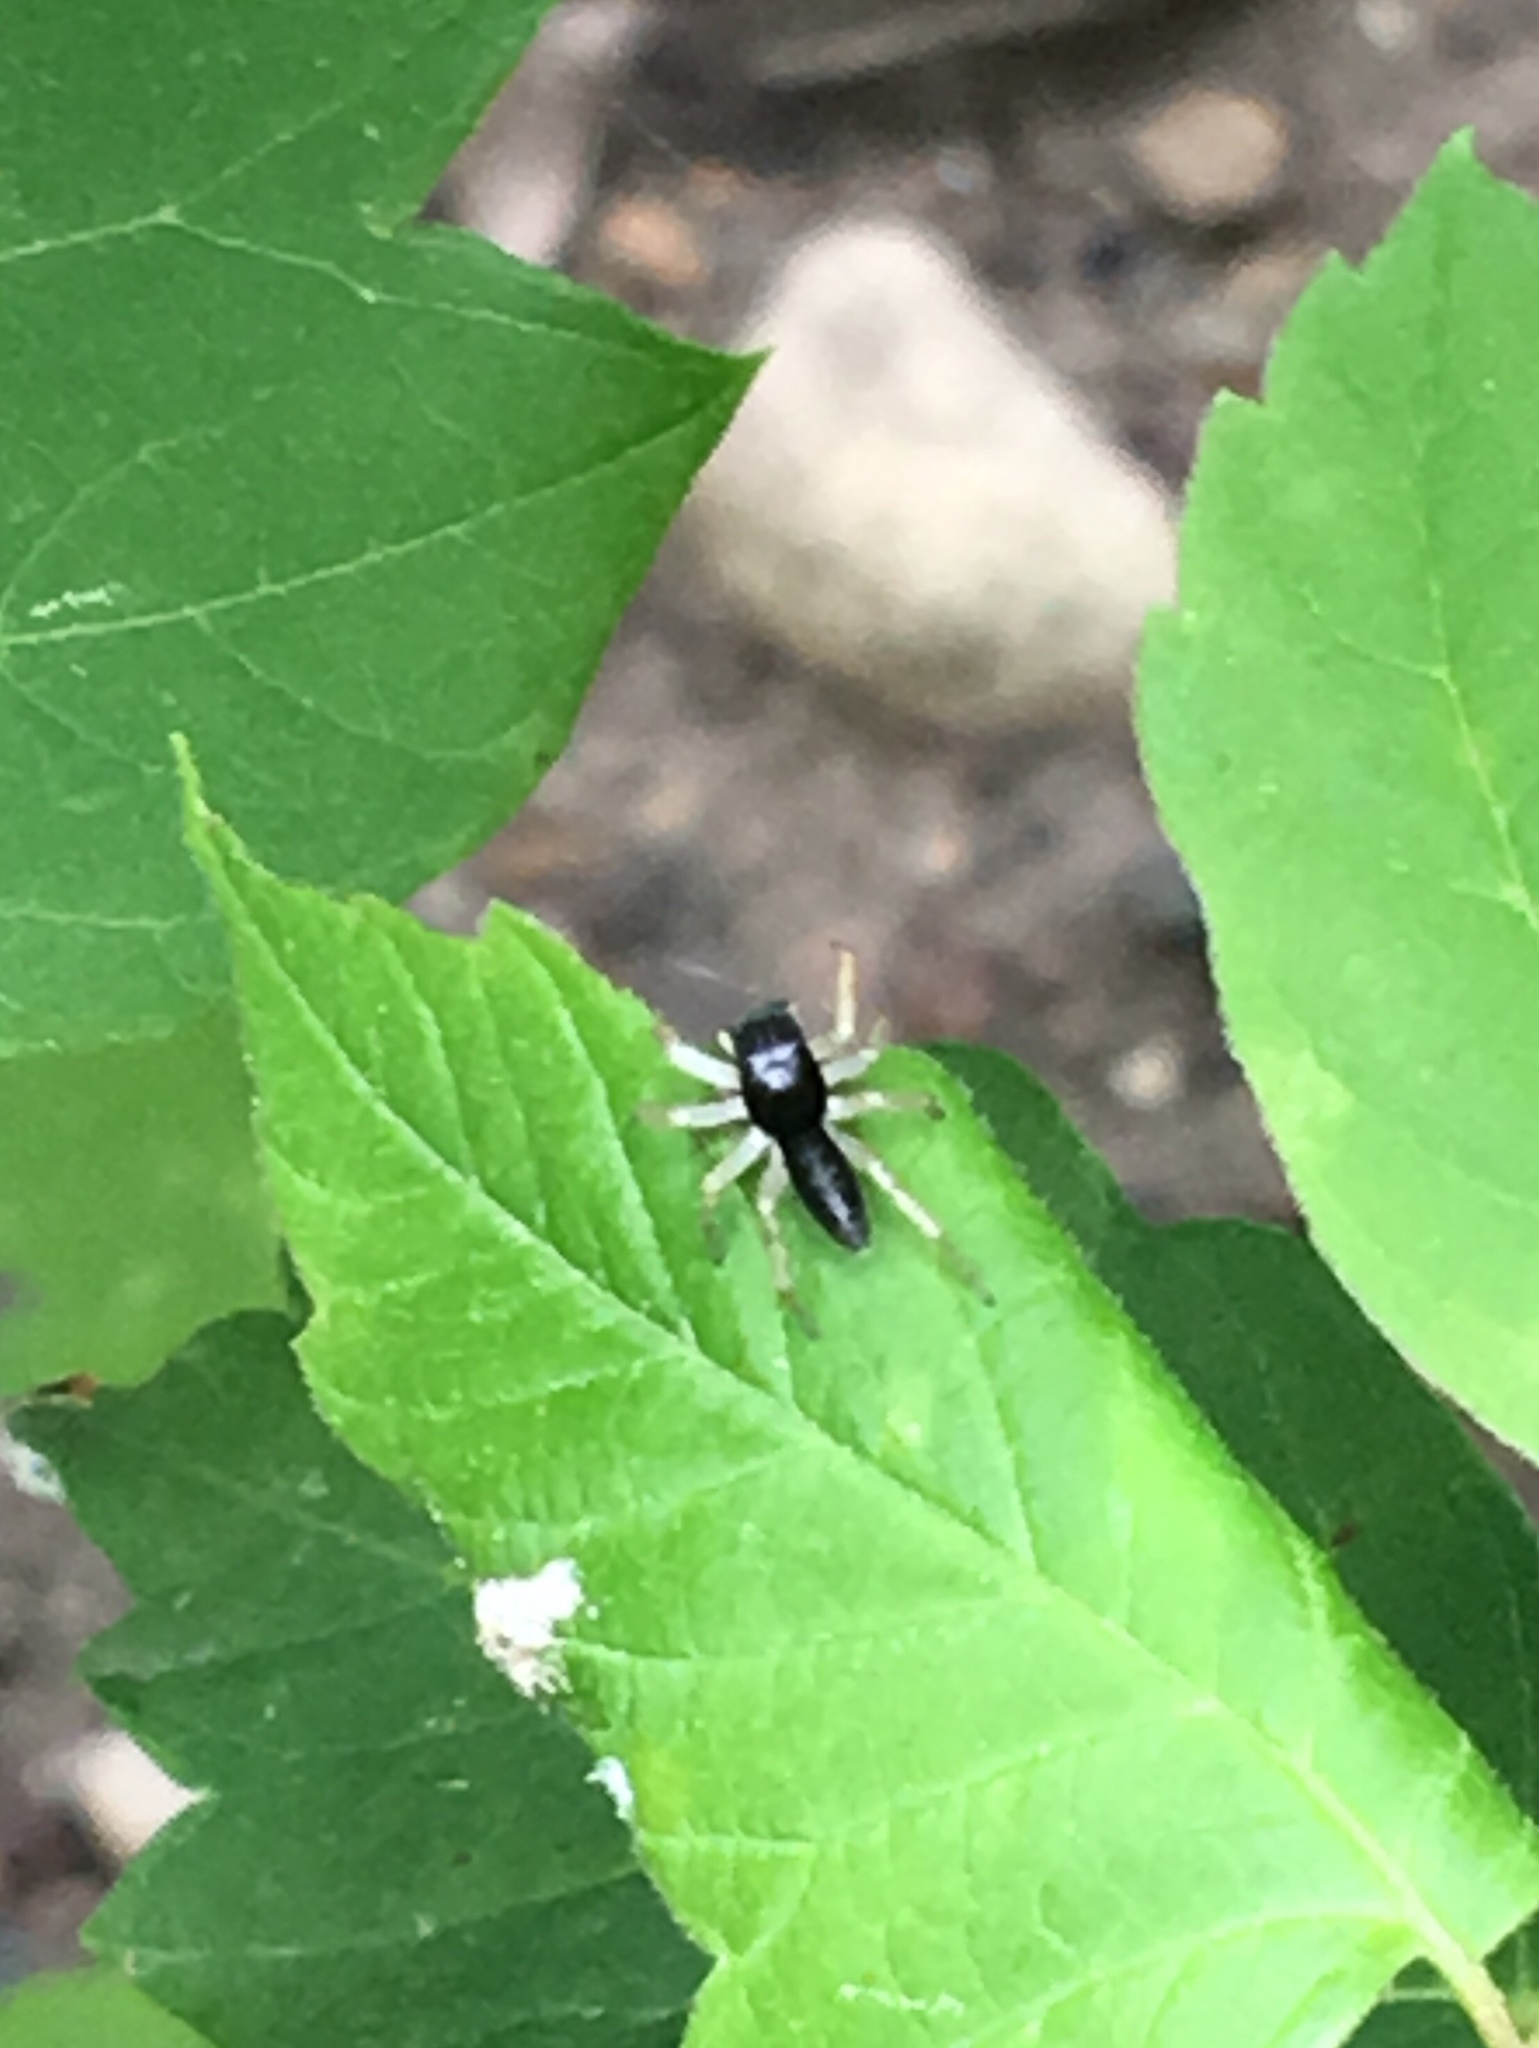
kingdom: Animalia
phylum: Arthropoda
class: Arachnida
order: Araneae
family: Salticidae
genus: Maevia
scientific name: Maevia inclemens
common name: Dimorphic jumper
